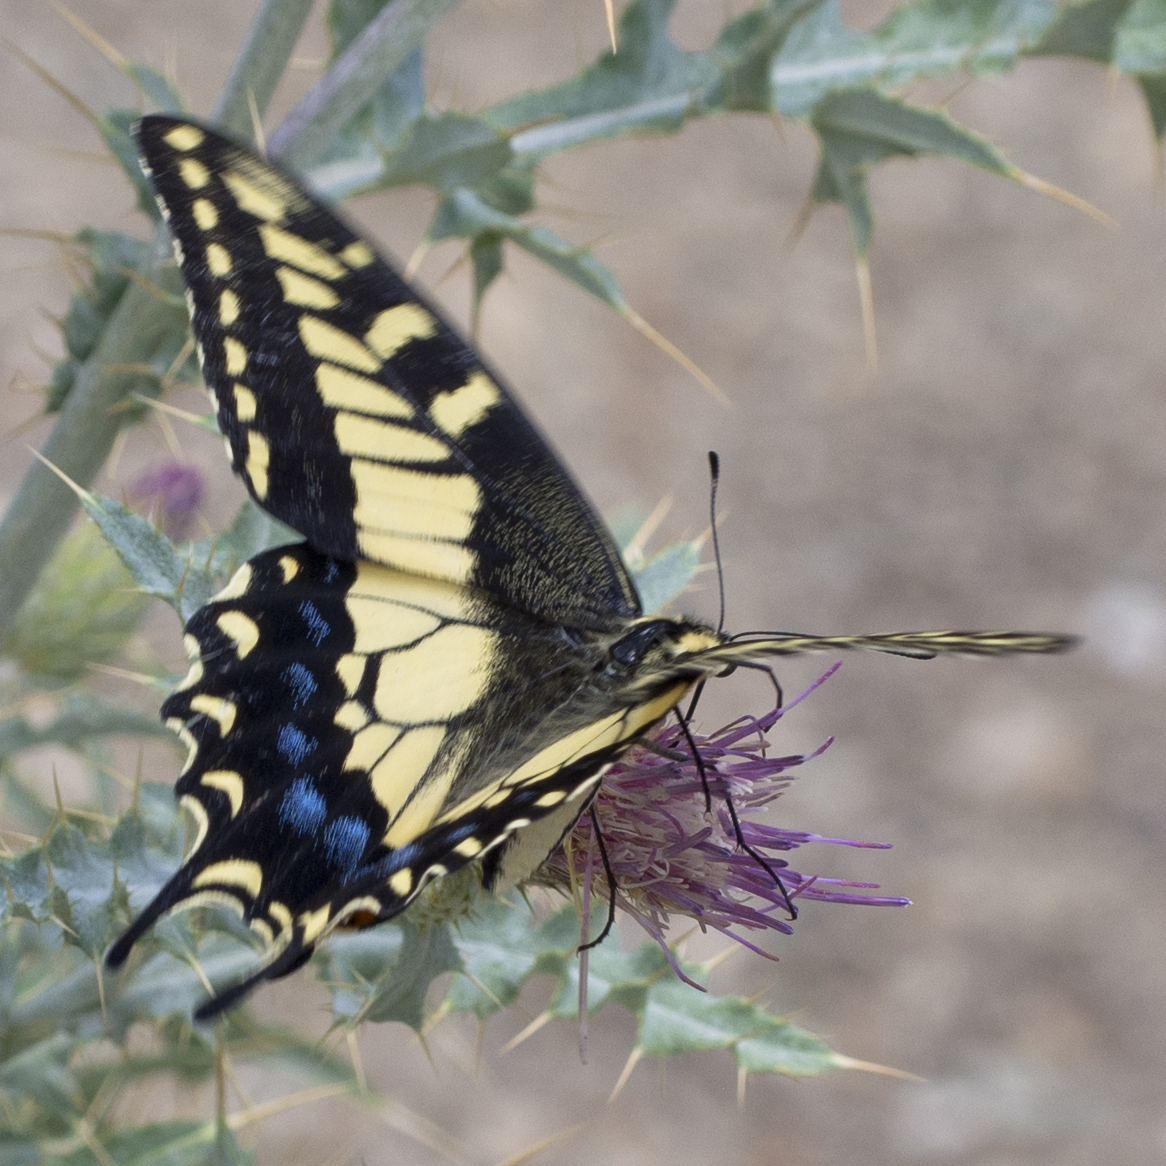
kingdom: Animalia
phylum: Arthropoda
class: Insecta
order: Lepidoptera
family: Papilionidae
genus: Papilio
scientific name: Papilio
